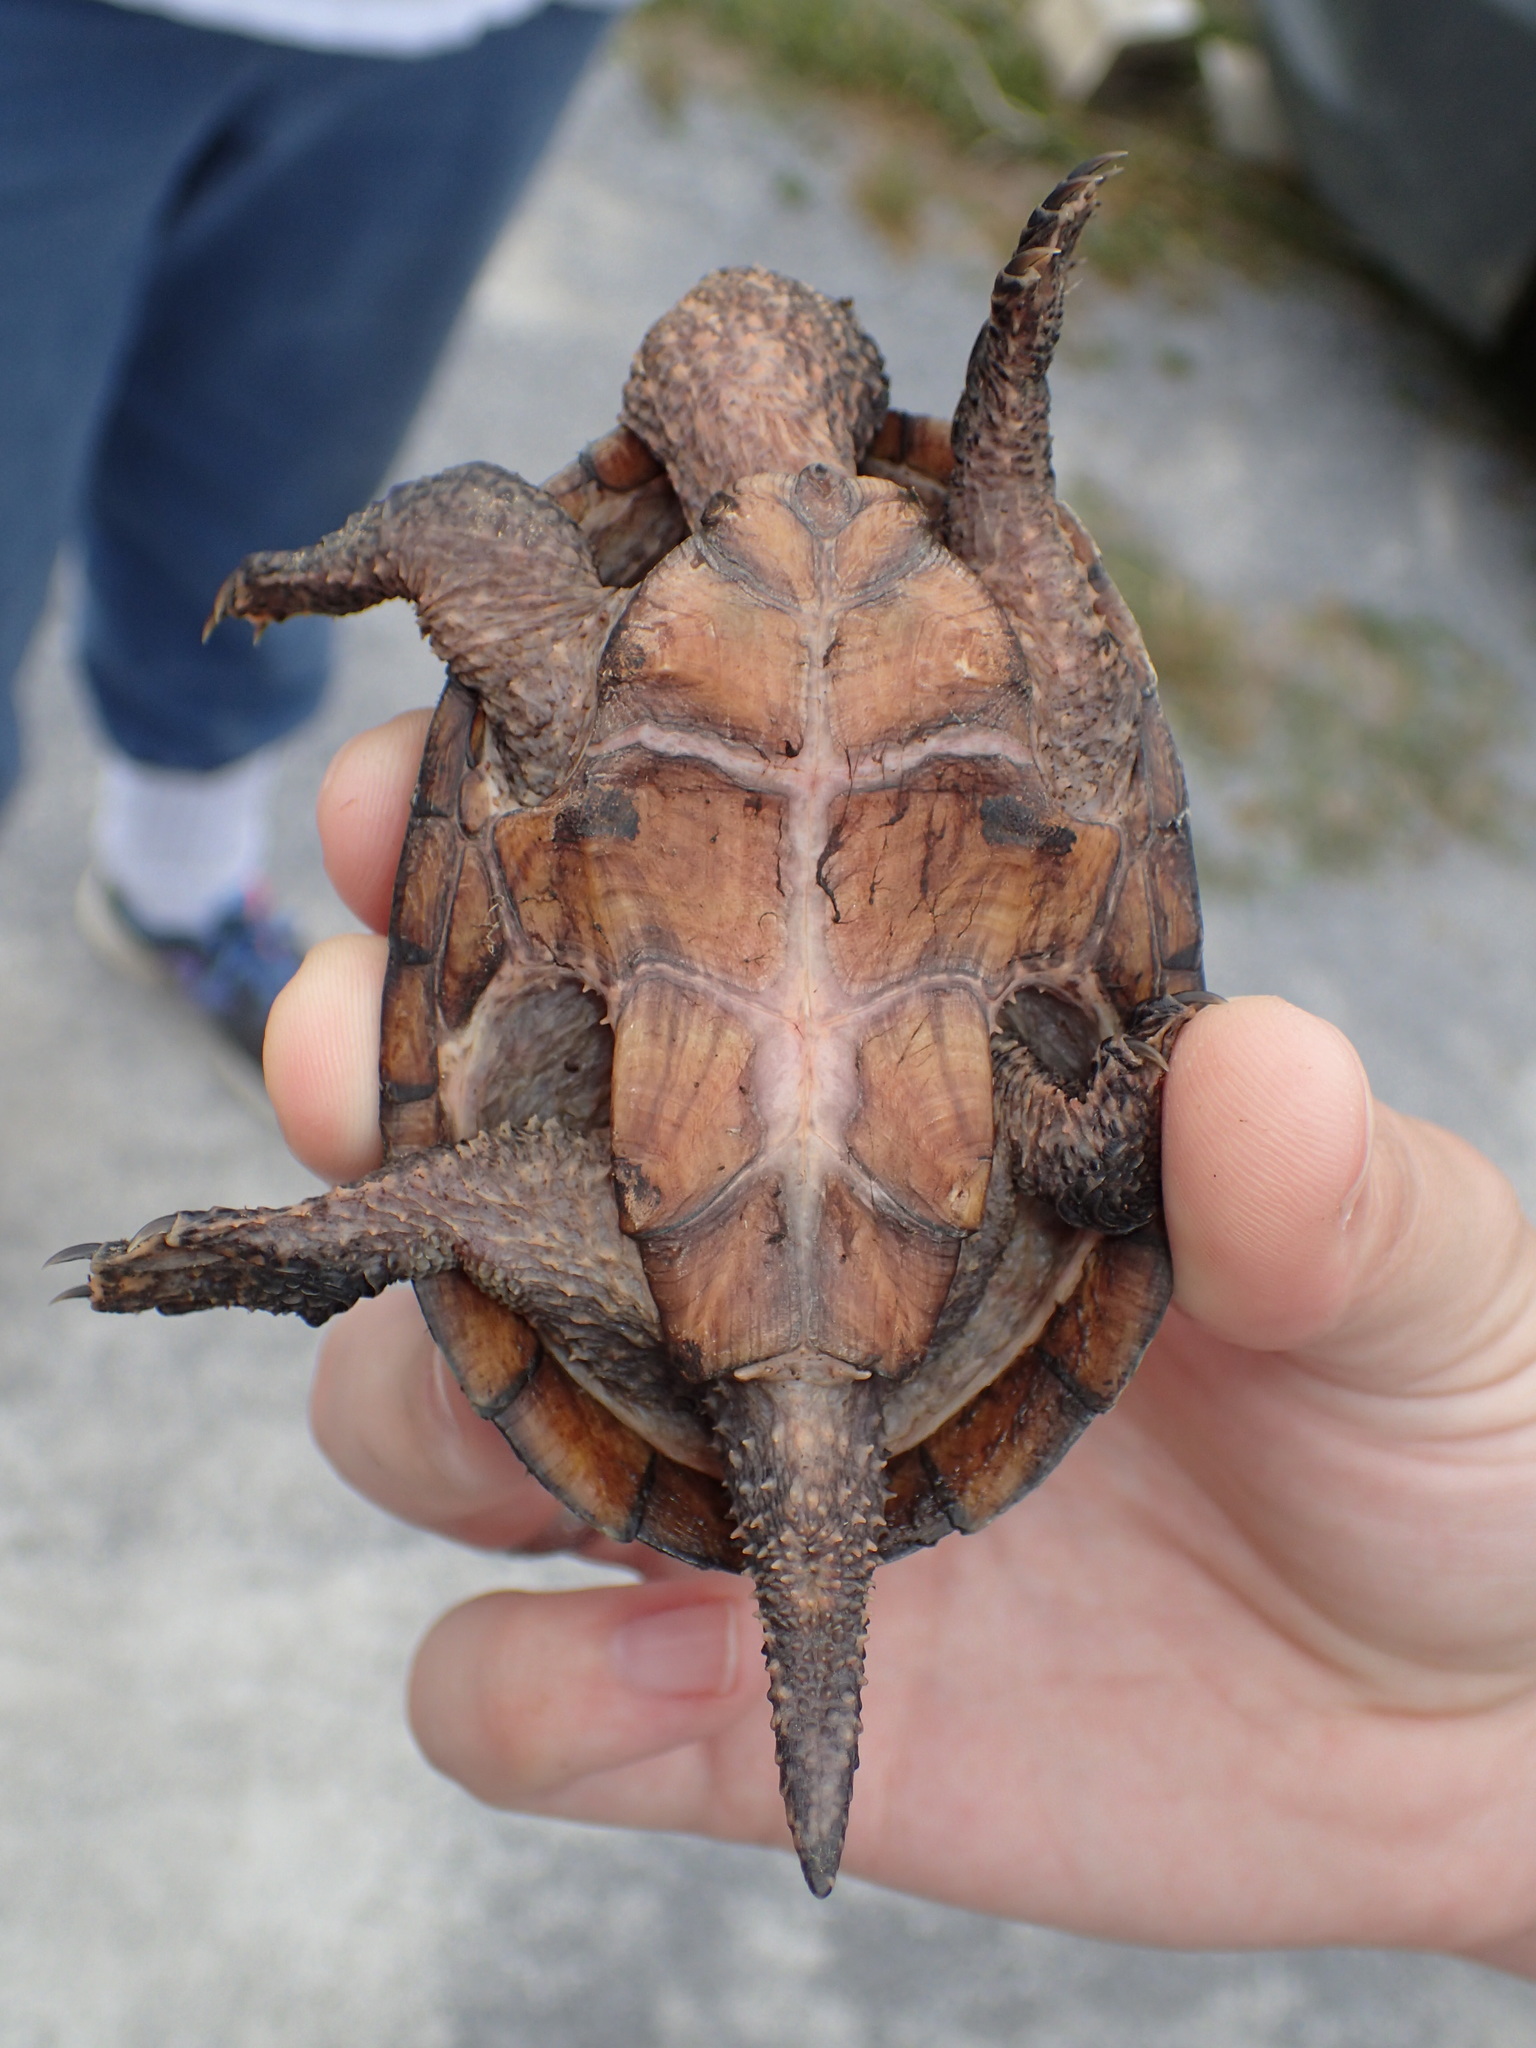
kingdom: Animalia
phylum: Chordata
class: Testudines
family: Kinosternidae
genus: Sternotherus
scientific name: Sternotherus odoratus
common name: Common musk turtle
